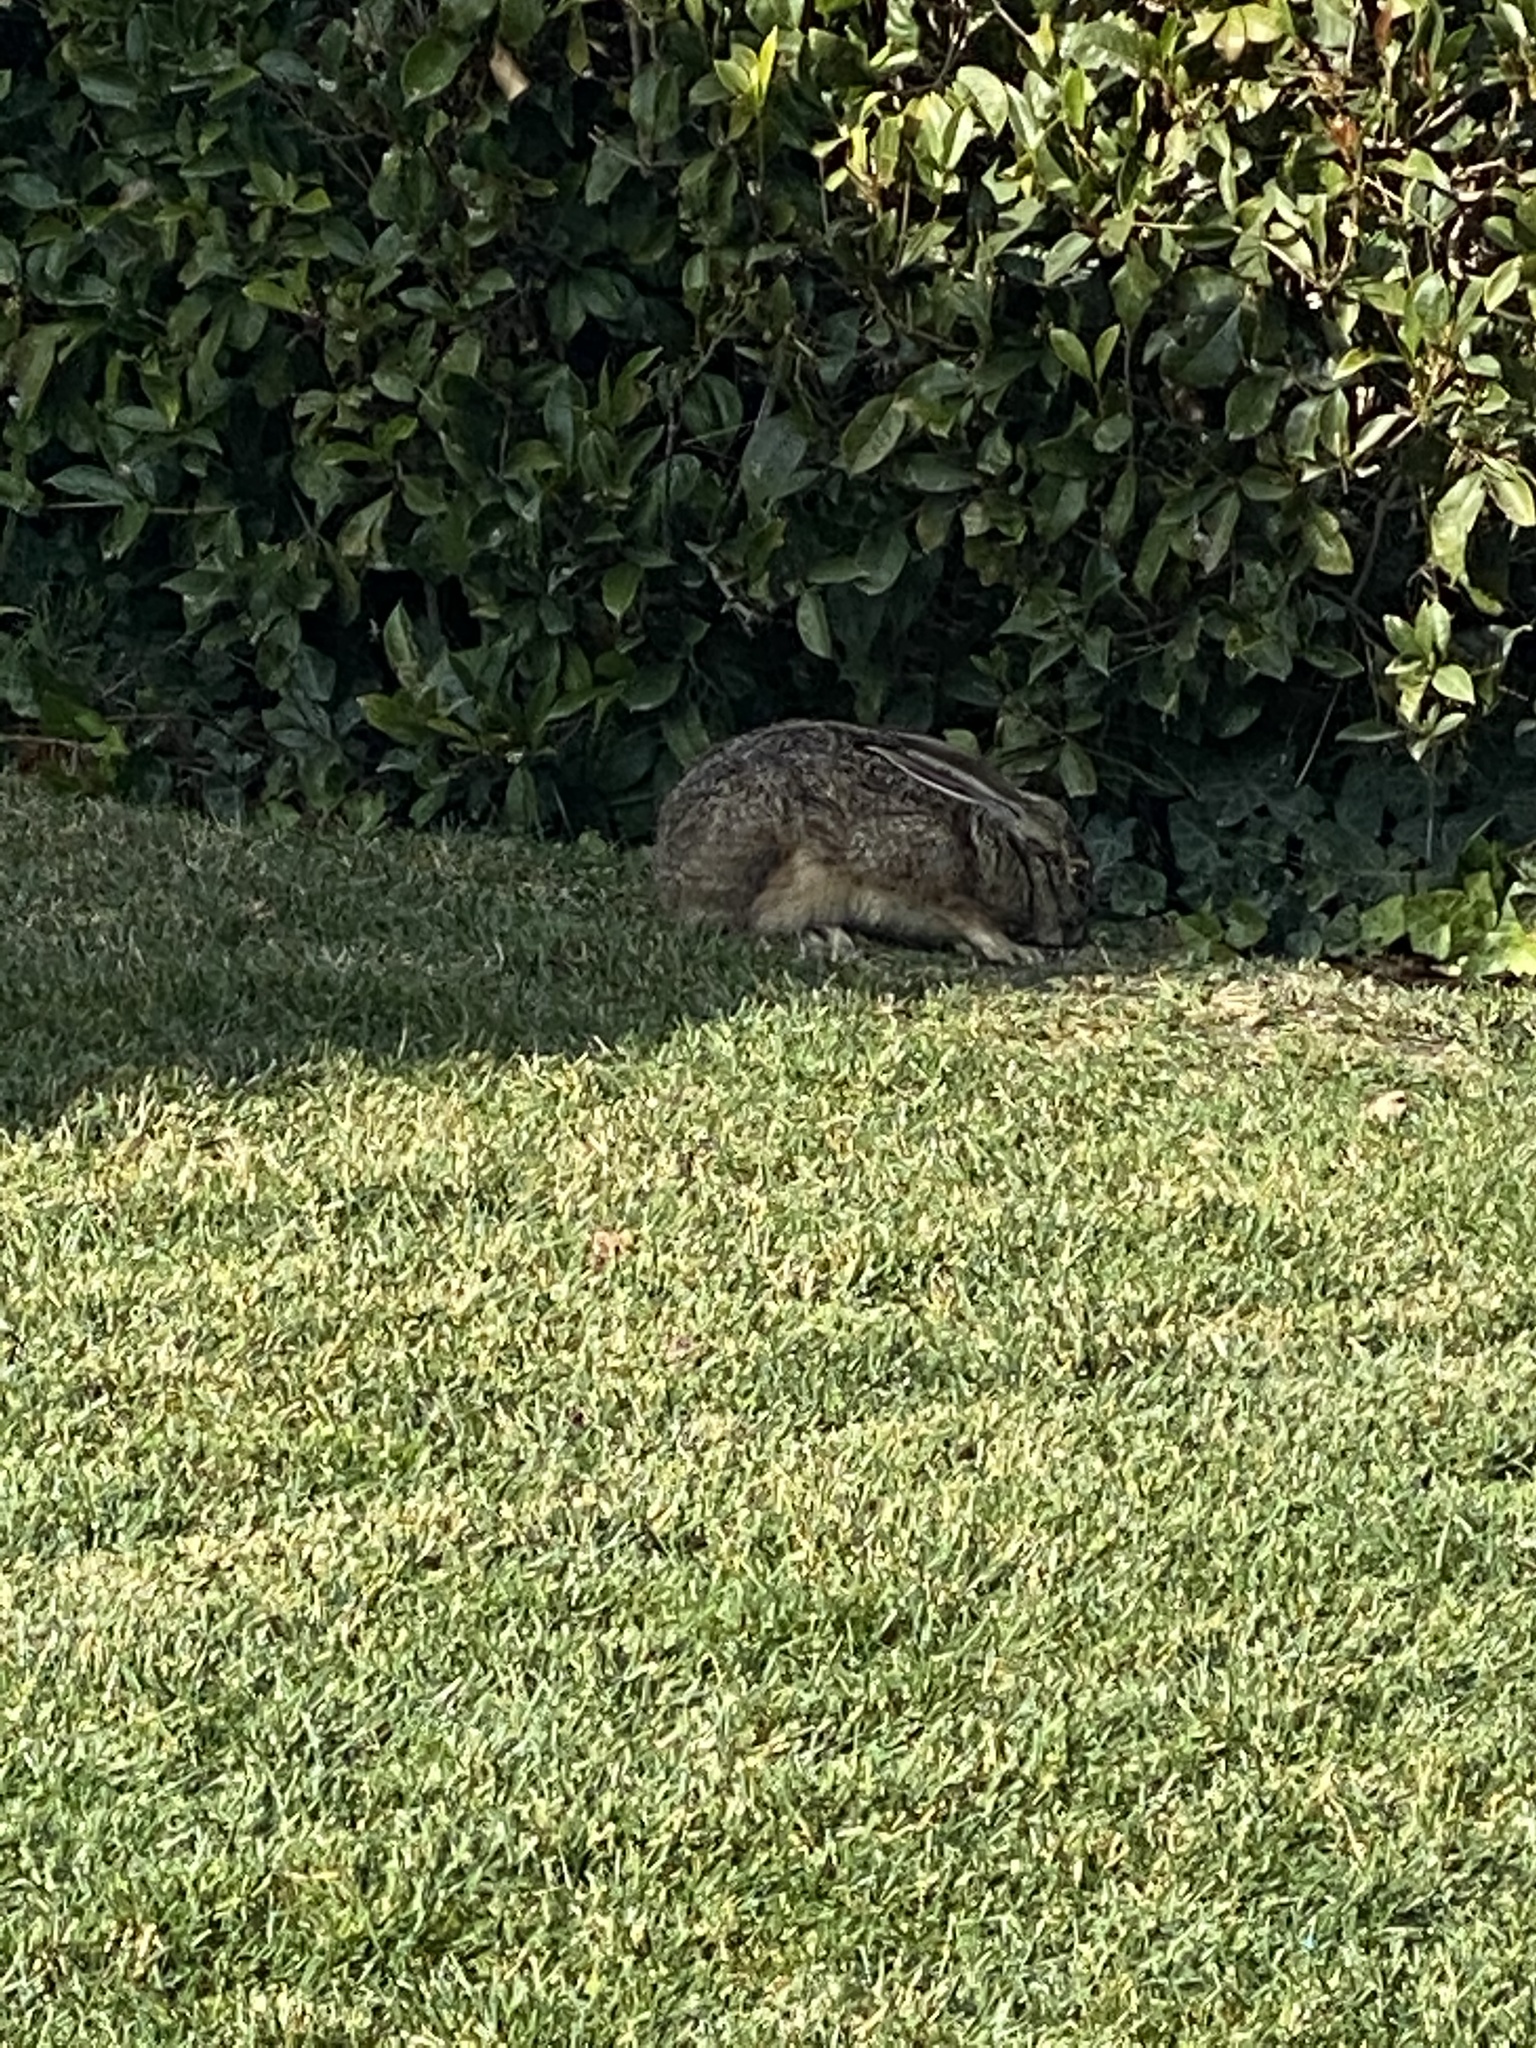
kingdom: Animalia
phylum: Chordata
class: Mammalia
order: Lagomorpha
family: Leporidae
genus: Lepus
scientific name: Lepus californicus
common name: Black-tailed jackrabbit
